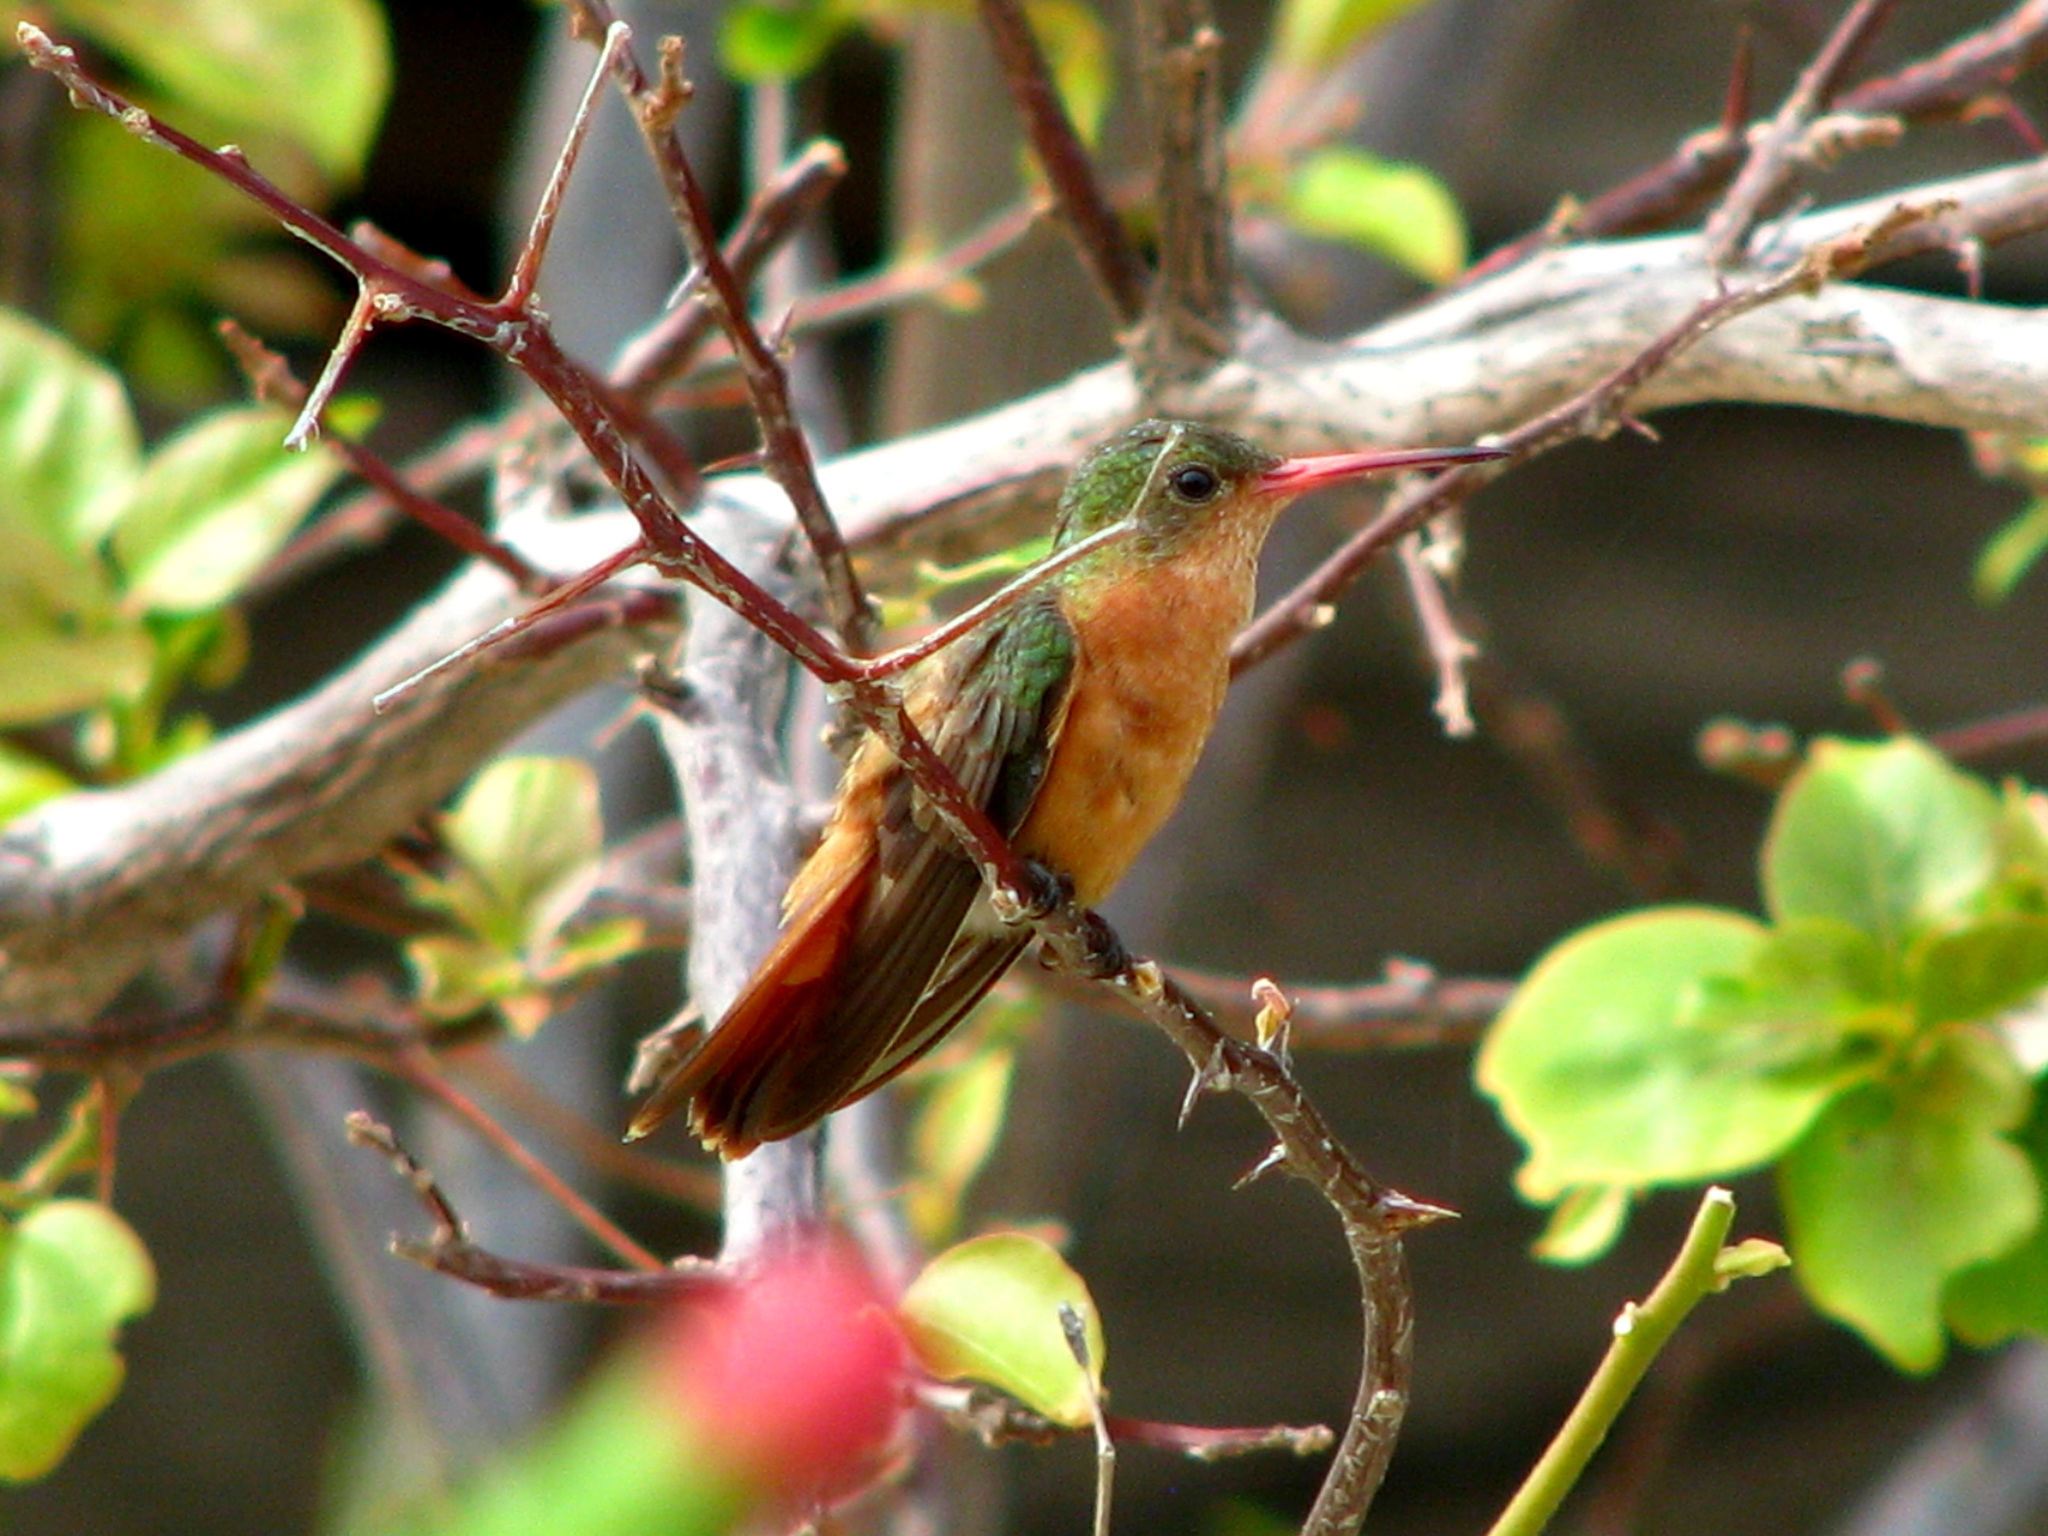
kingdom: Animalia
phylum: Chordata
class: Aves
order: Apodiformes
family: Trochilidae
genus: Amazilia
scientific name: Amazilia rutila
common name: Cinnamon hummingbird
